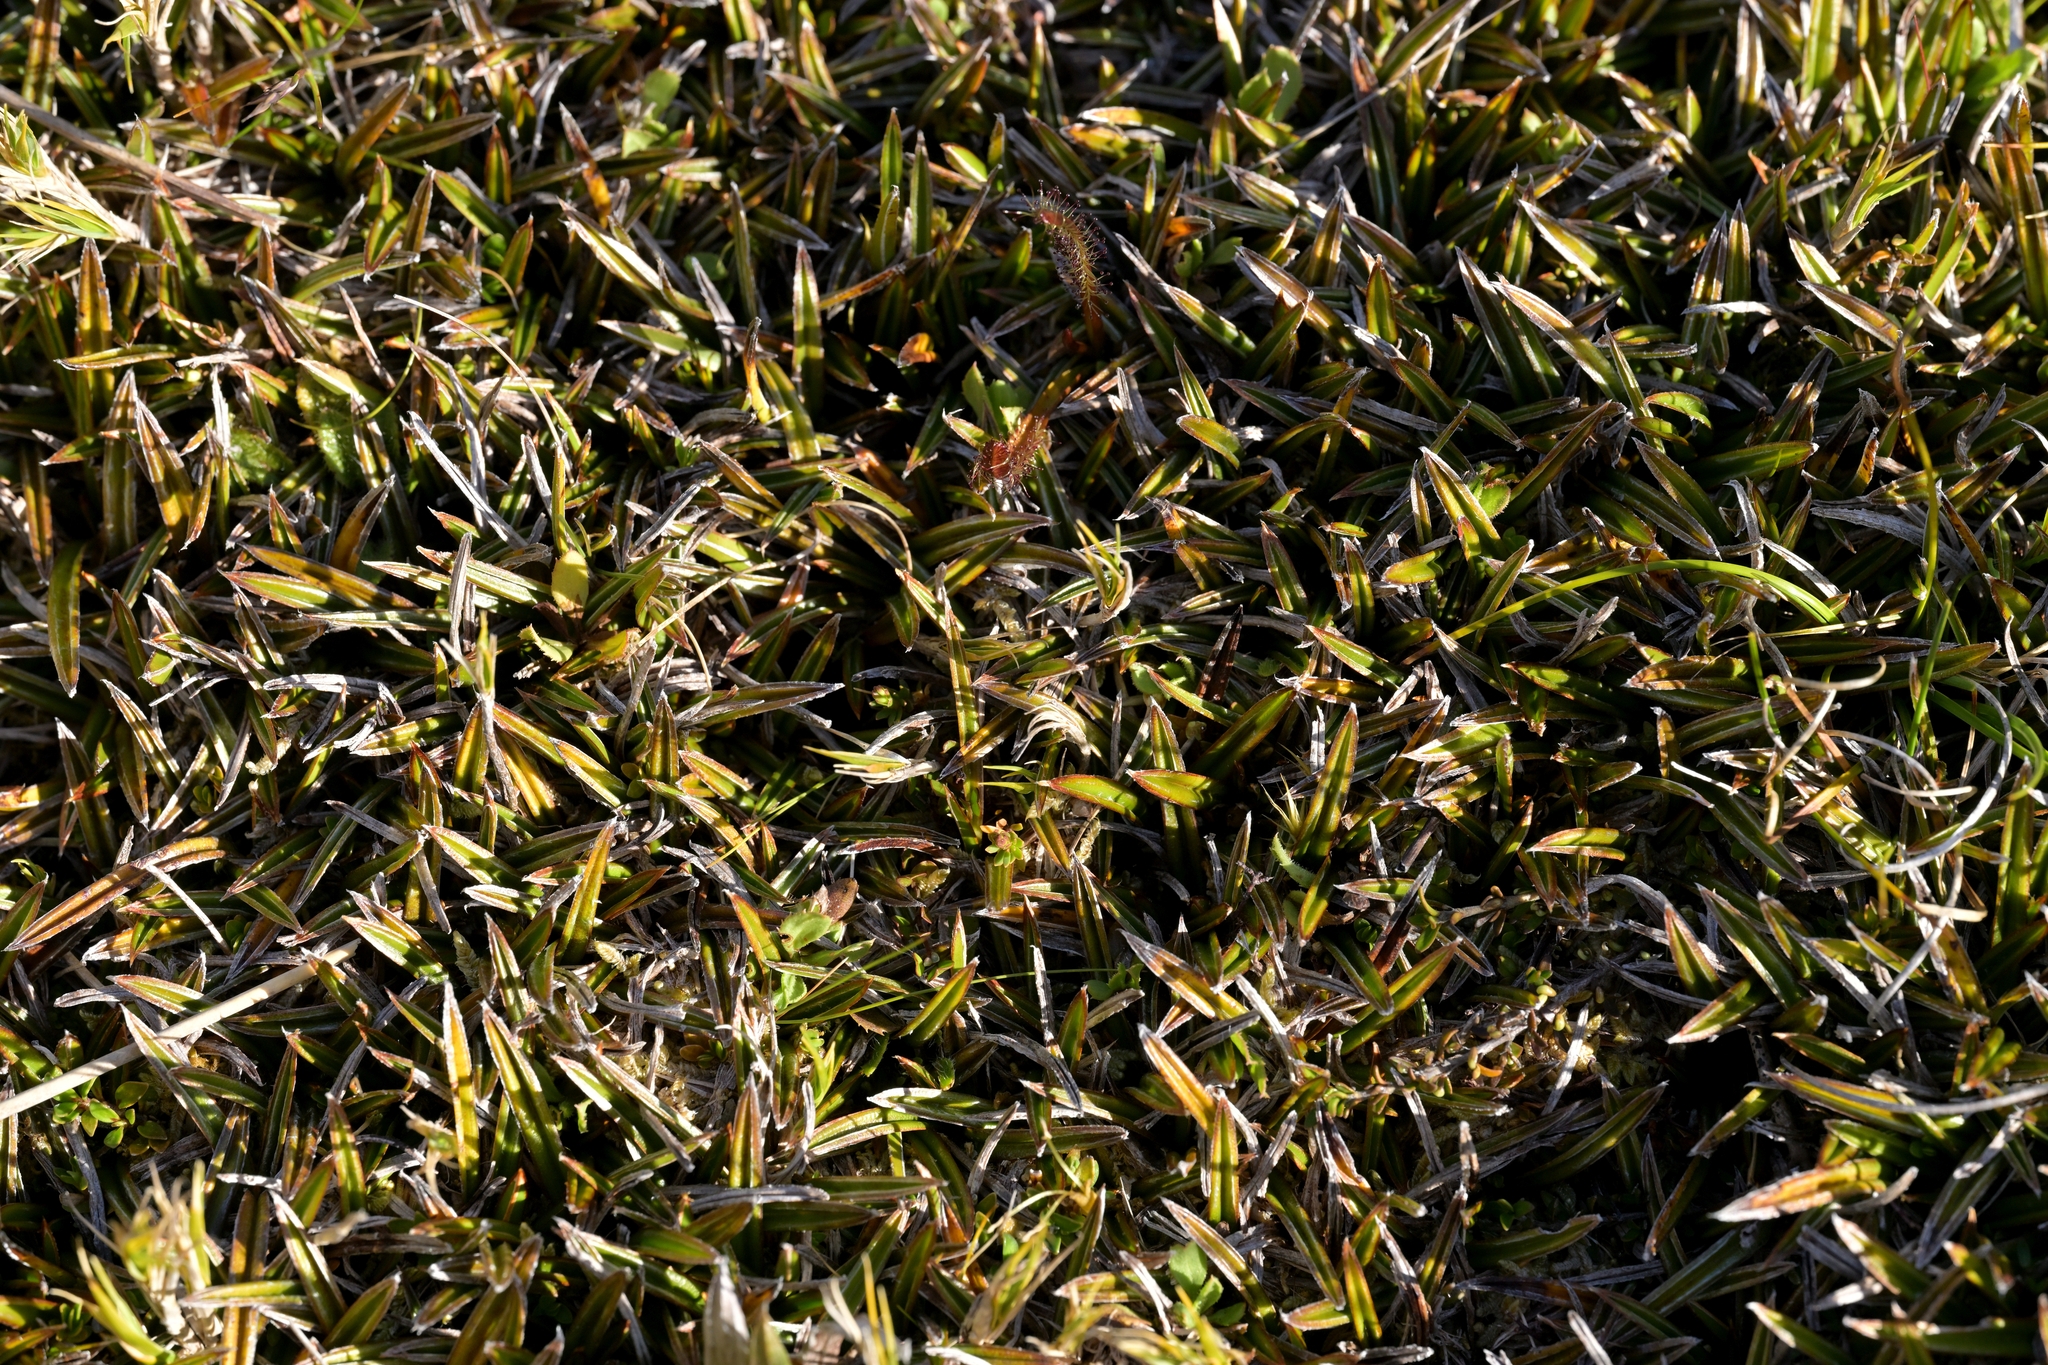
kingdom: Plantae
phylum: Tracheophyta
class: Liliopsida
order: Asparagales
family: Asteliaceae
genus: Astelia
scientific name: Astelia linearis
